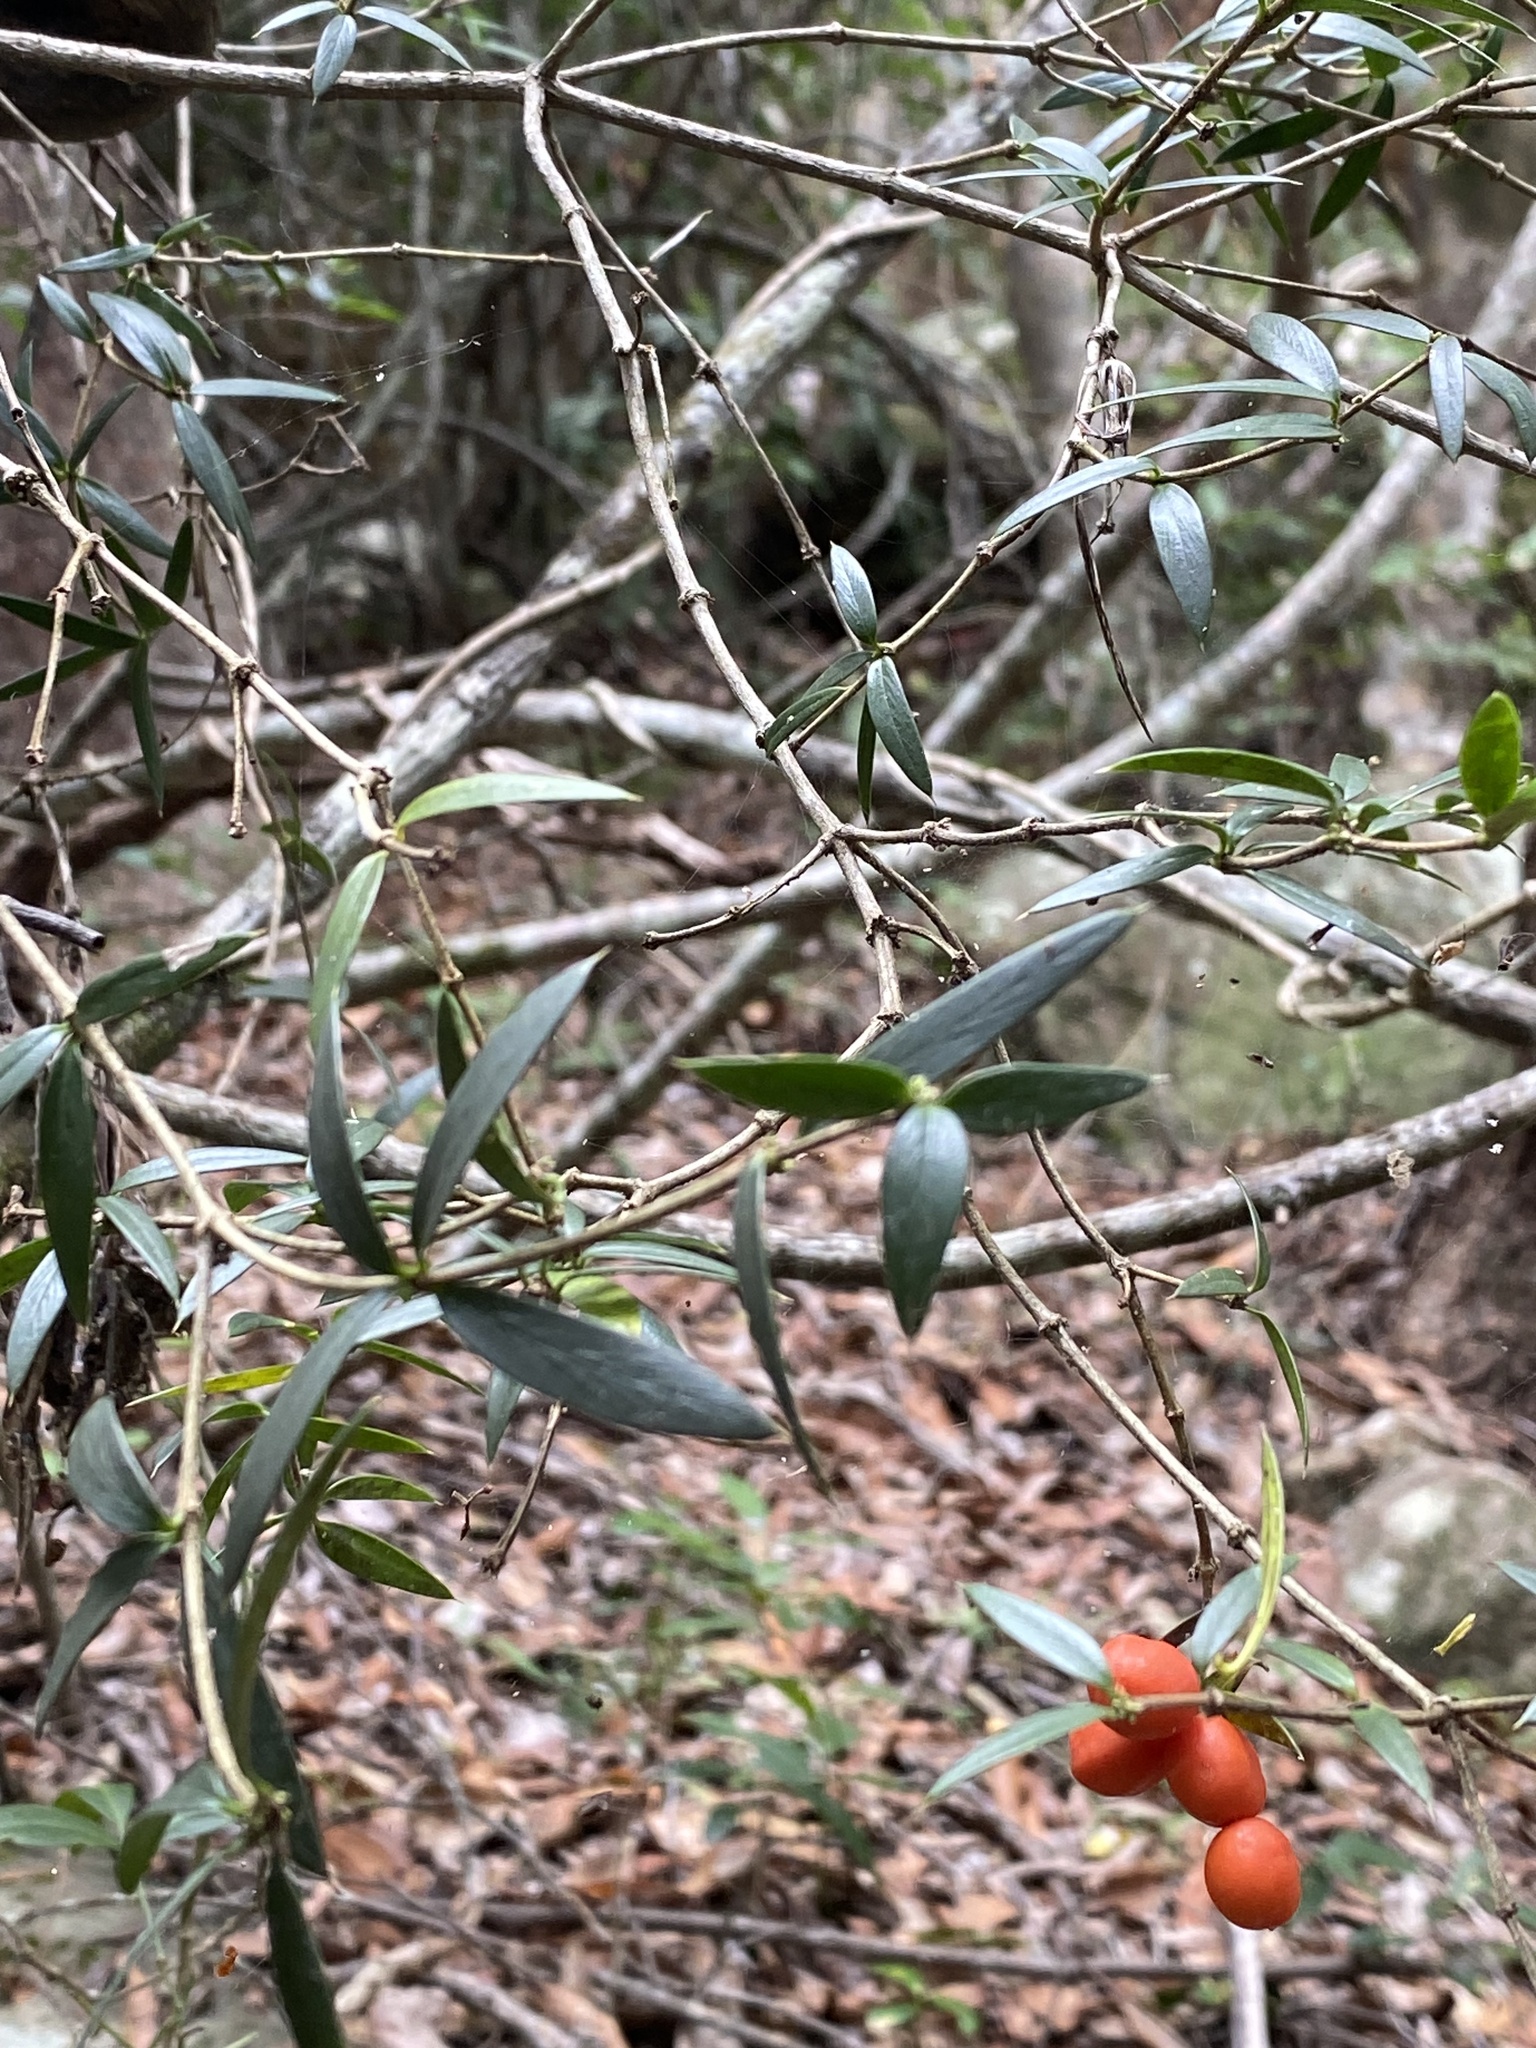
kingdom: Plantae
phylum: Tracheophyta
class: Magnoliopsida
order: Gentianales
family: Apocynaceae
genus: Alyxia
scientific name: Alyxia ruscifolia
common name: Chainfruit
